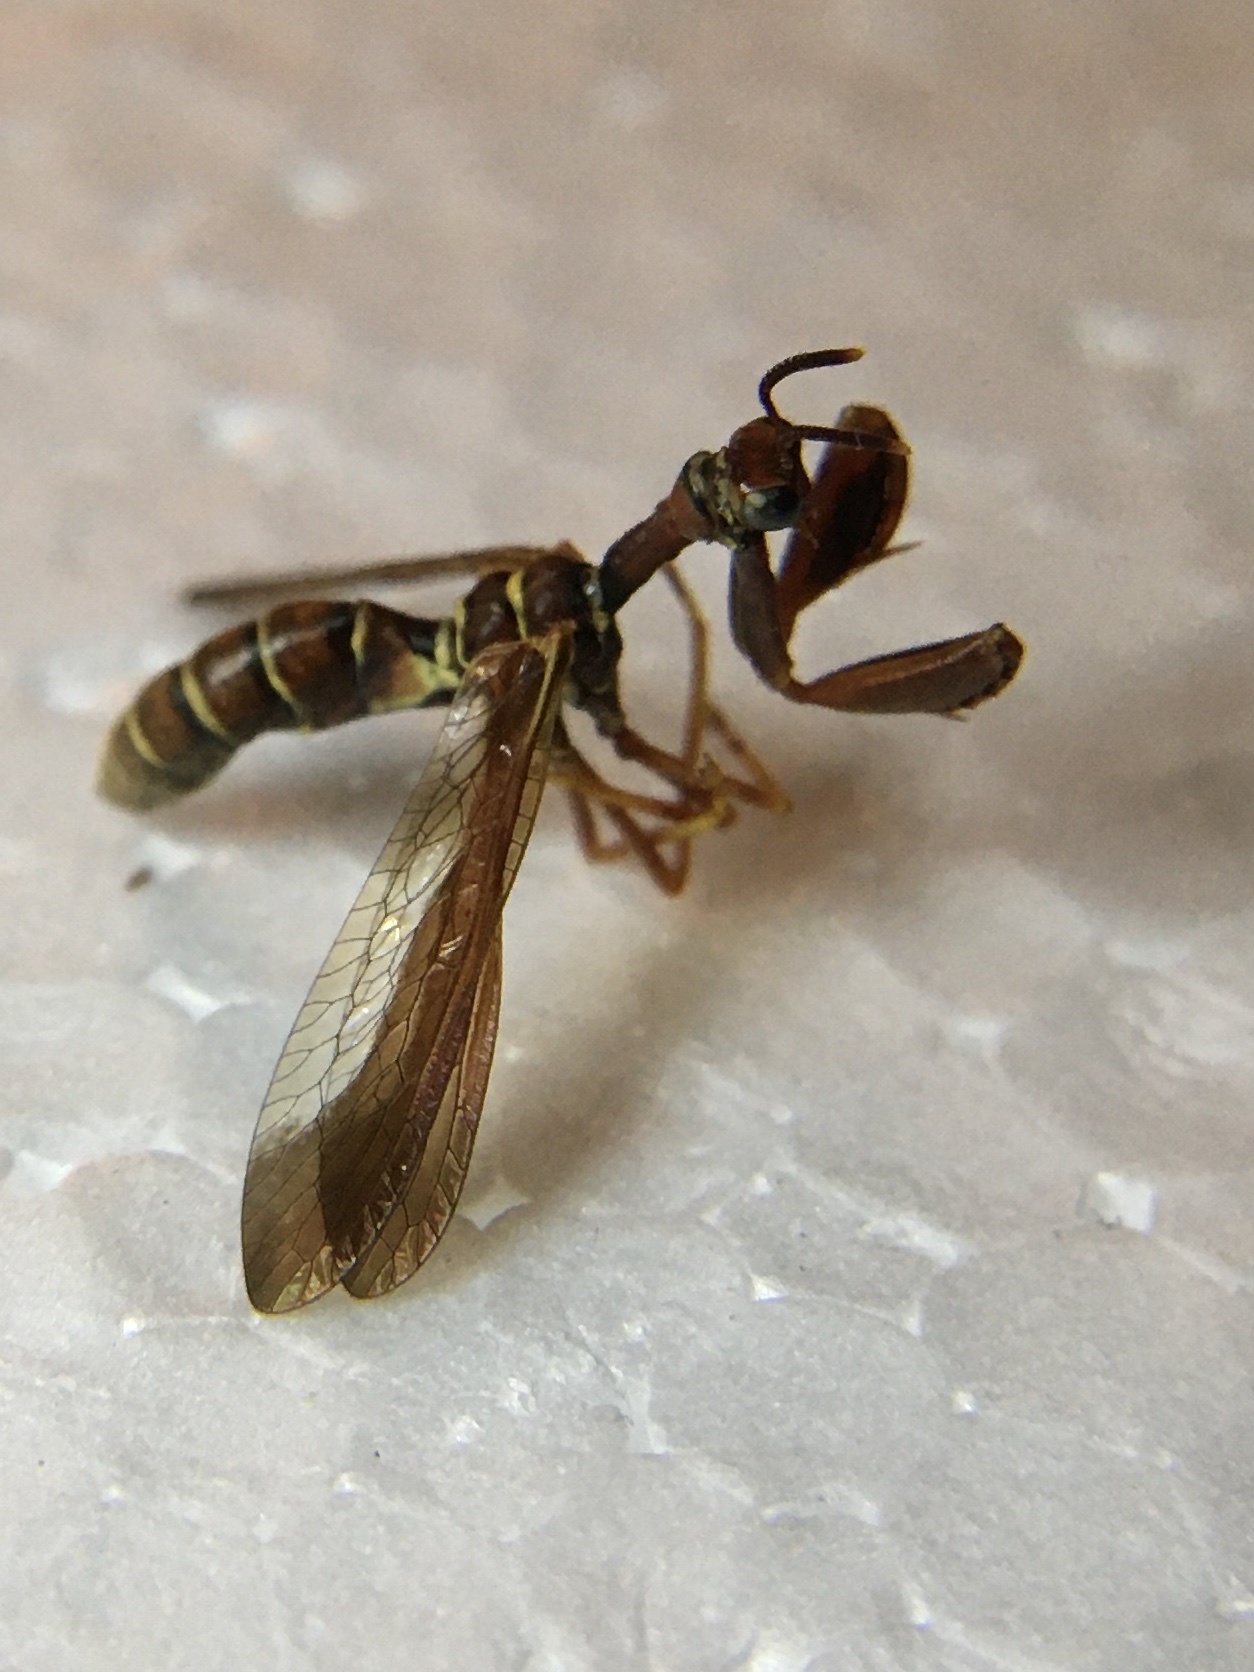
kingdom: Animalia
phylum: Arthropoda
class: Insecta
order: Neuroptera
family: Mantispidae
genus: Climaciella
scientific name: Climaciella brunnea
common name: Brown wasp mantidfly
